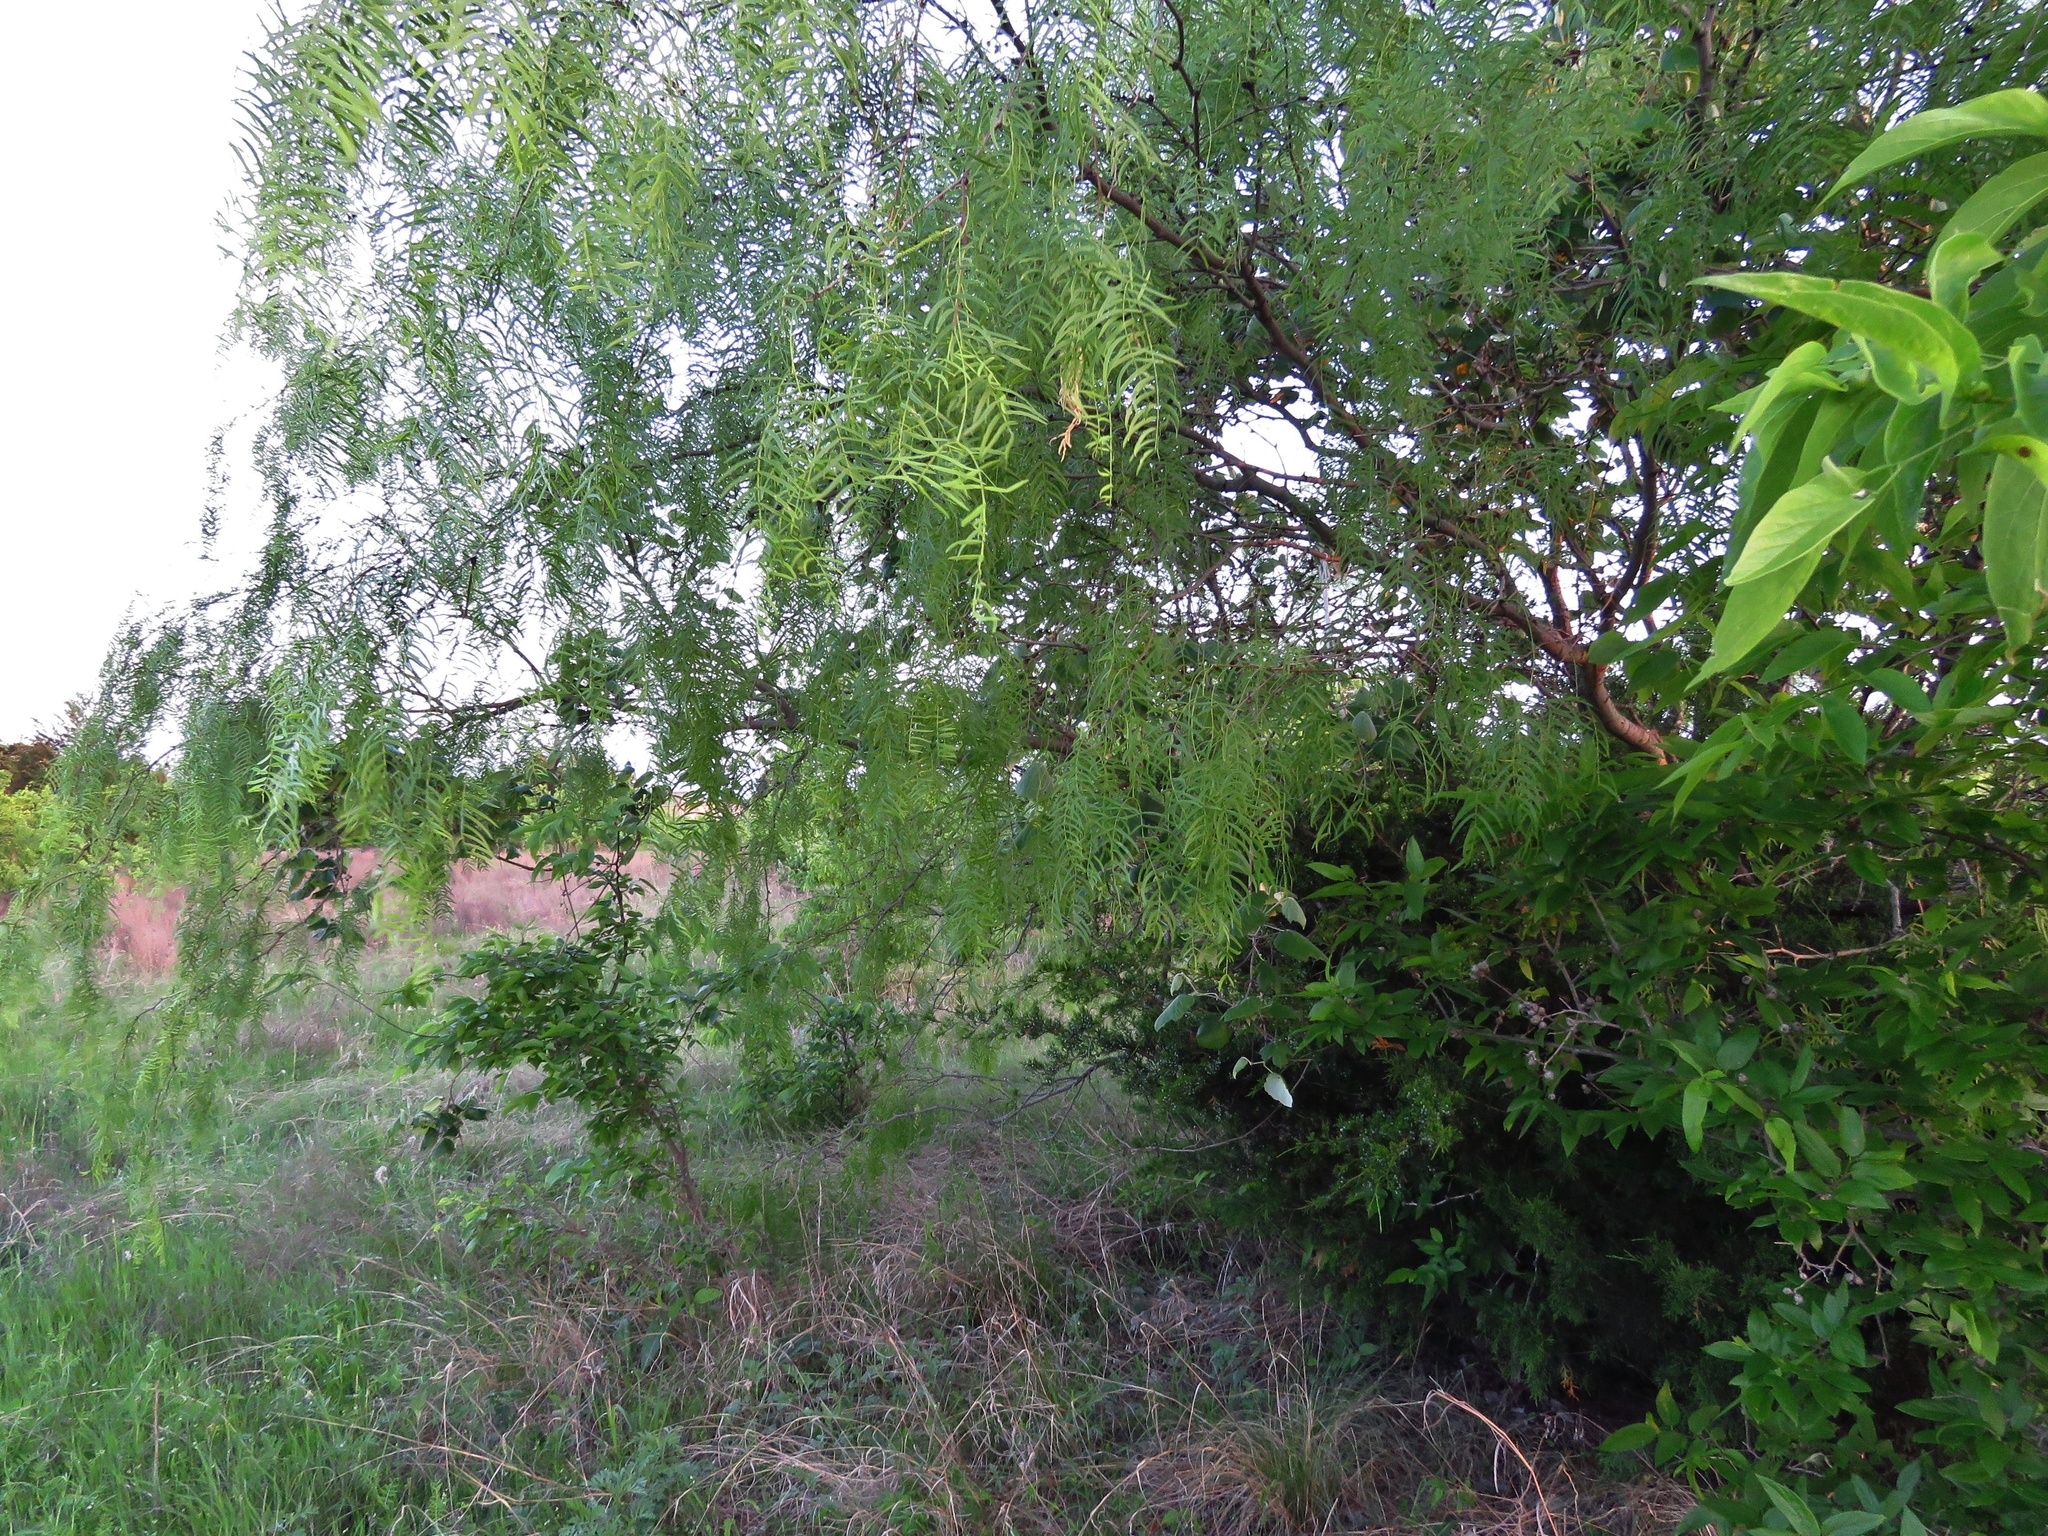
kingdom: Plantae
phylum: Tracheophyta
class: Magnoliopsida
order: Fabales
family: Fabaceae
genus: Prosopis
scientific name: Prosopis glandulosa
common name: Honey mesquite
